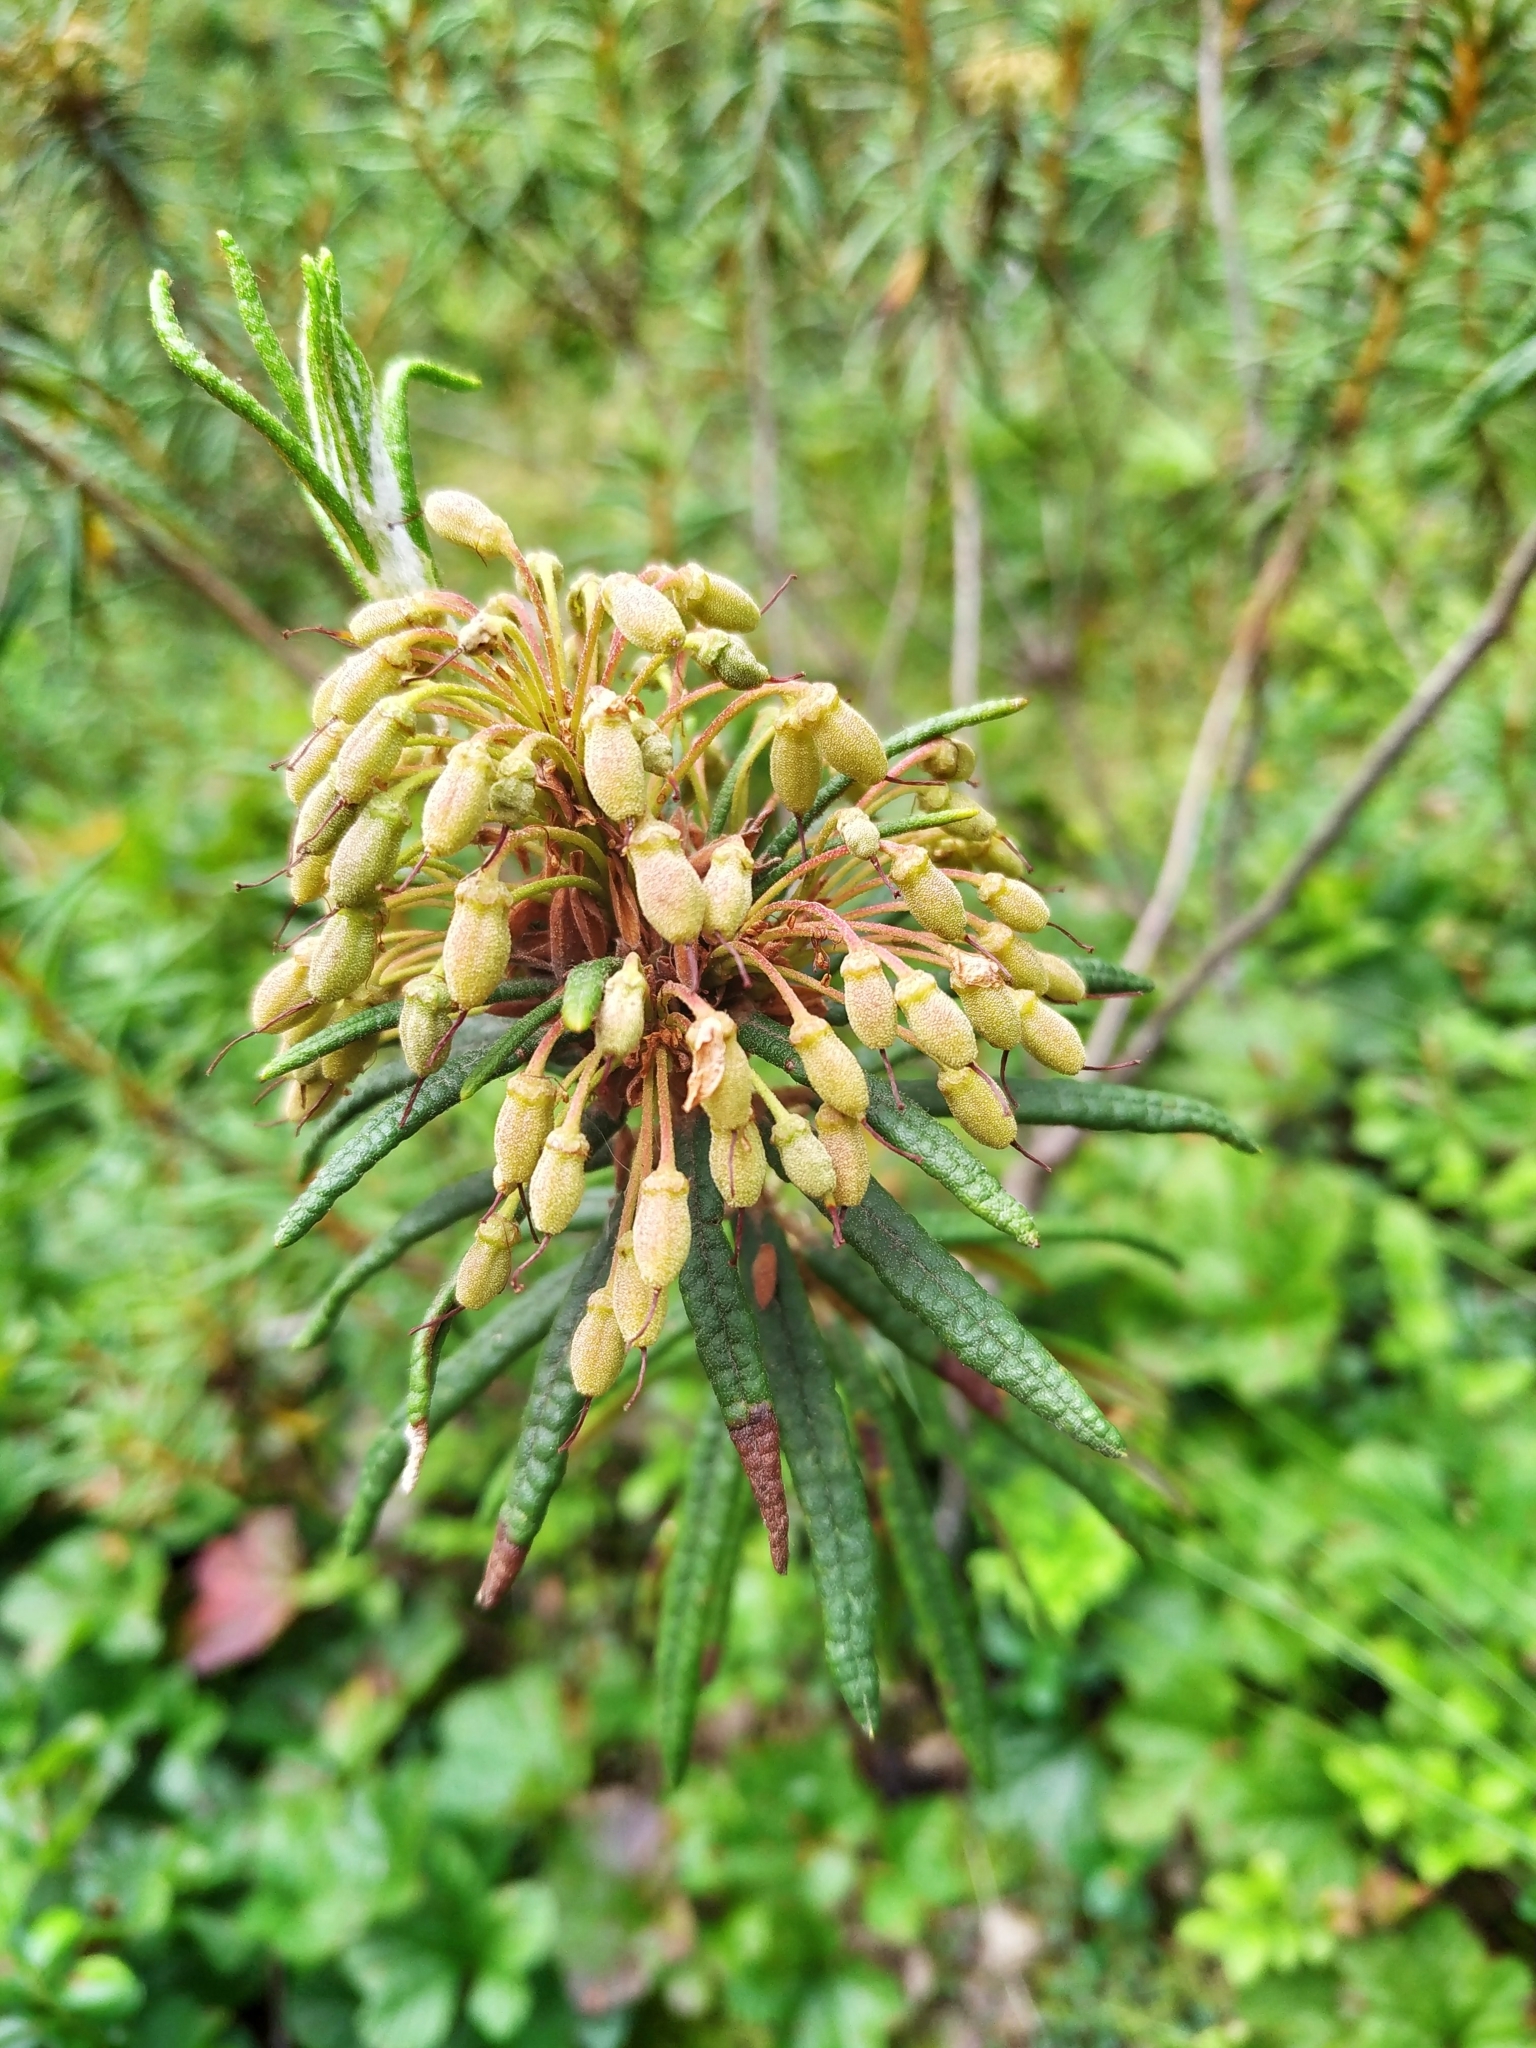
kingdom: Plantae
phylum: Tracheophyta
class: Magnoliopsida
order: Ericales
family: Ericaceae
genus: Rhododendron
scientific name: Rhododendron tomentosum
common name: Marsh labrador tea
